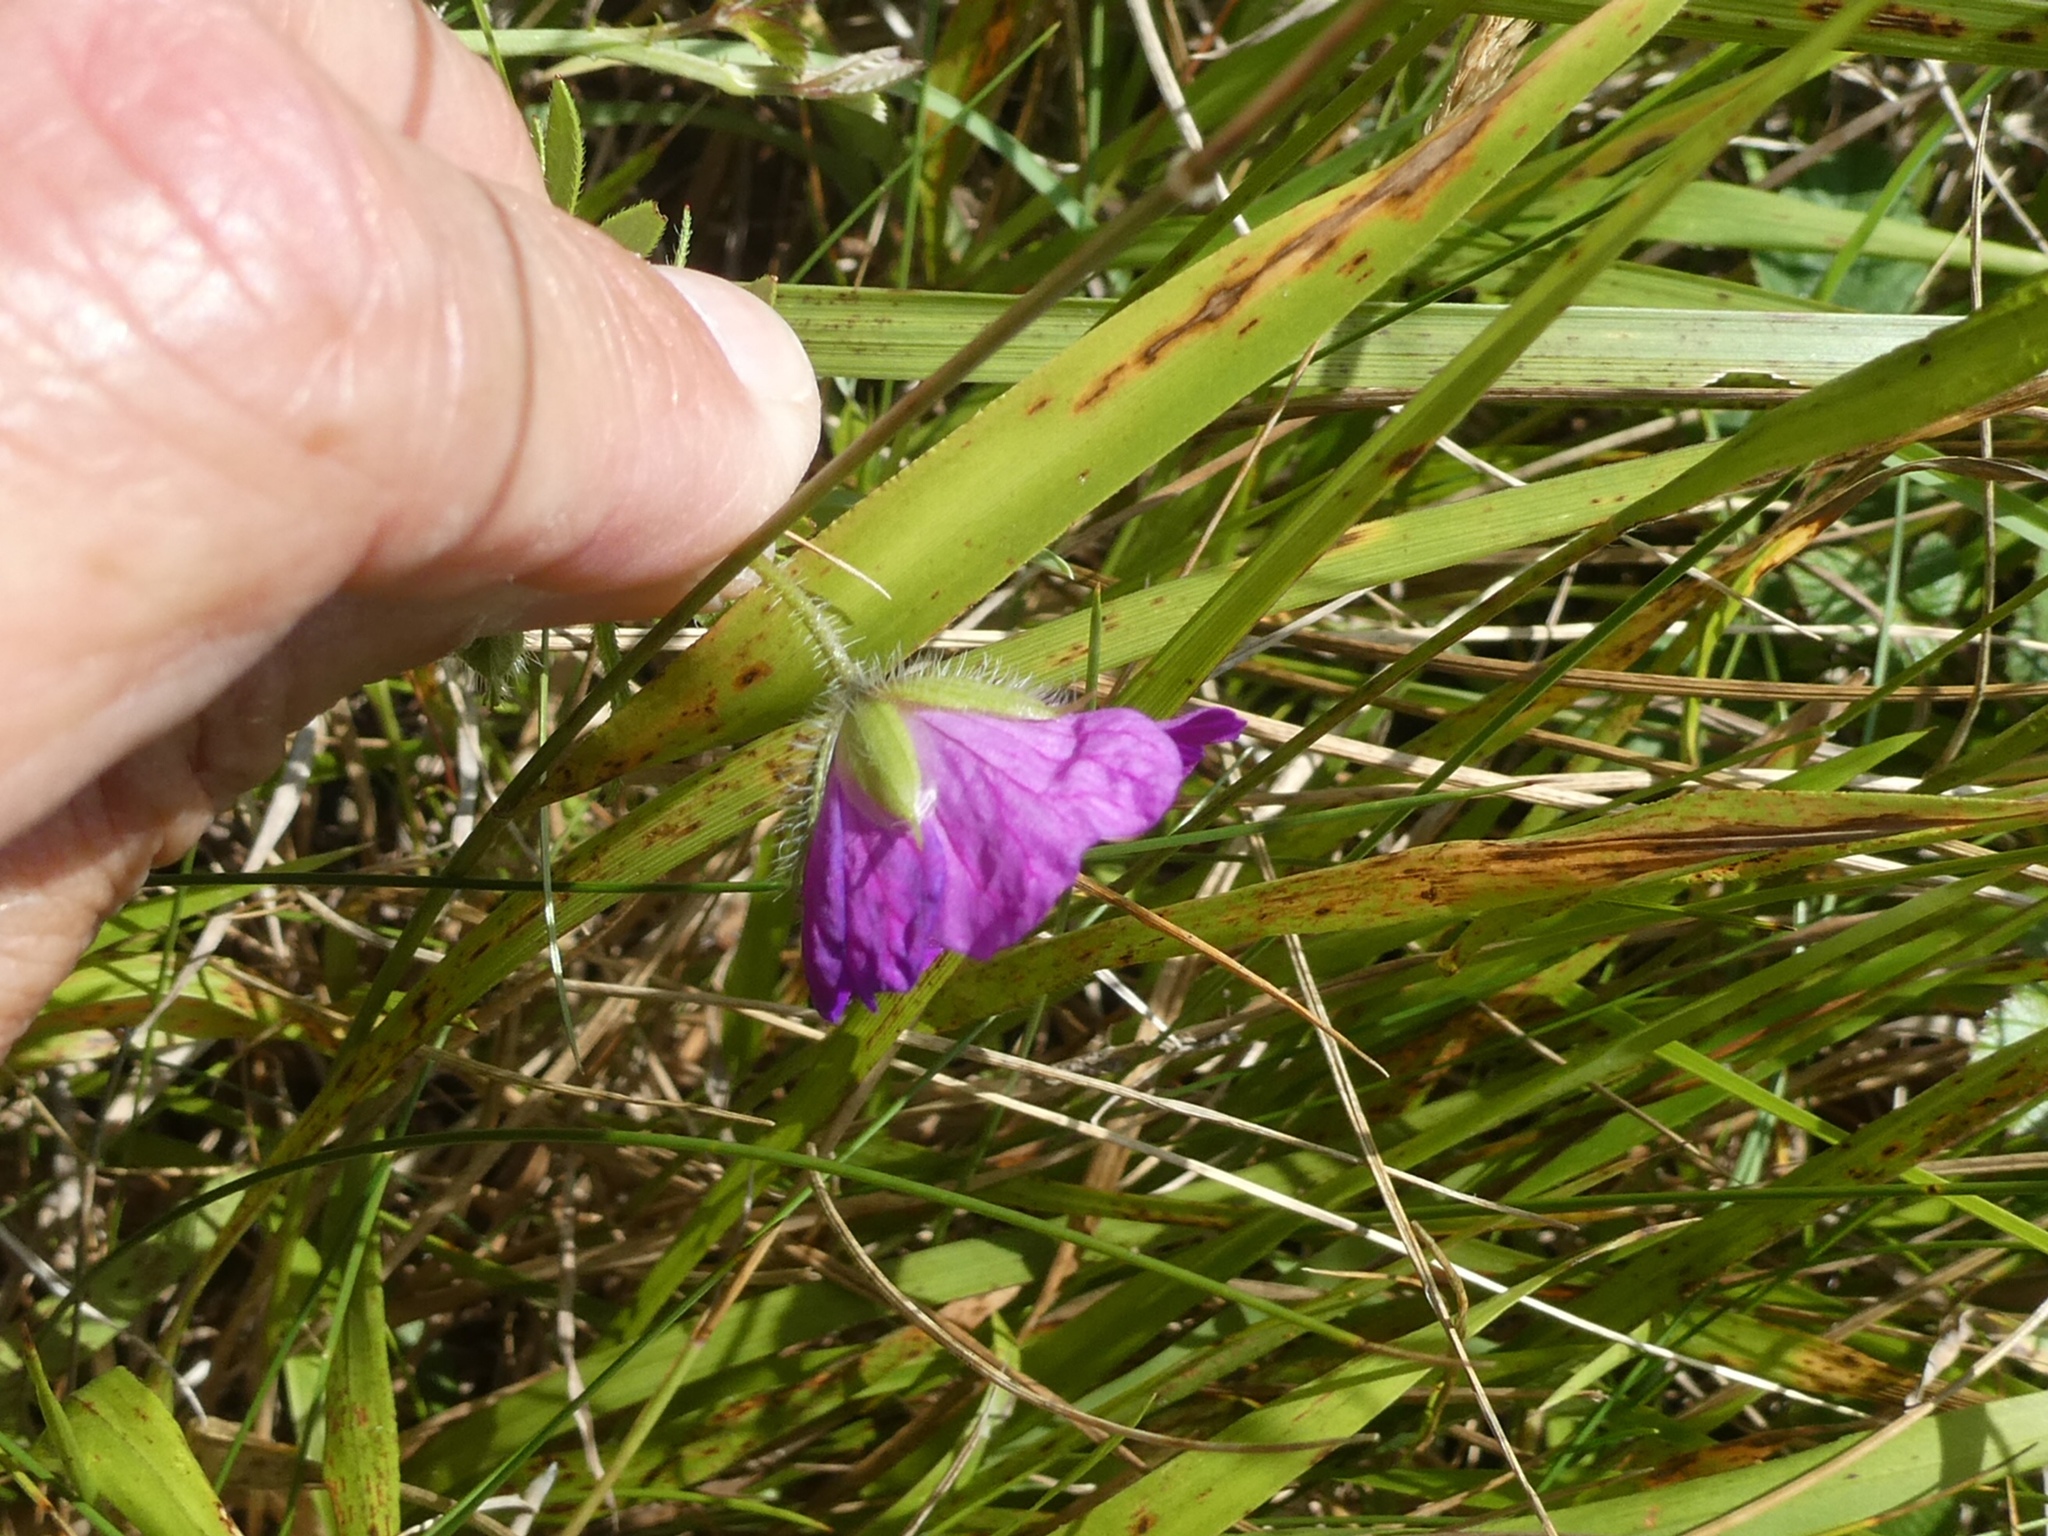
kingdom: Plantae
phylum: Tracheophyta
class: Magnoliopsida
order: Geraniales
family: Geraniaceae
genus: Geranium
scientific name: Geranium sanguineum
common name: Bloody crane's-bill
